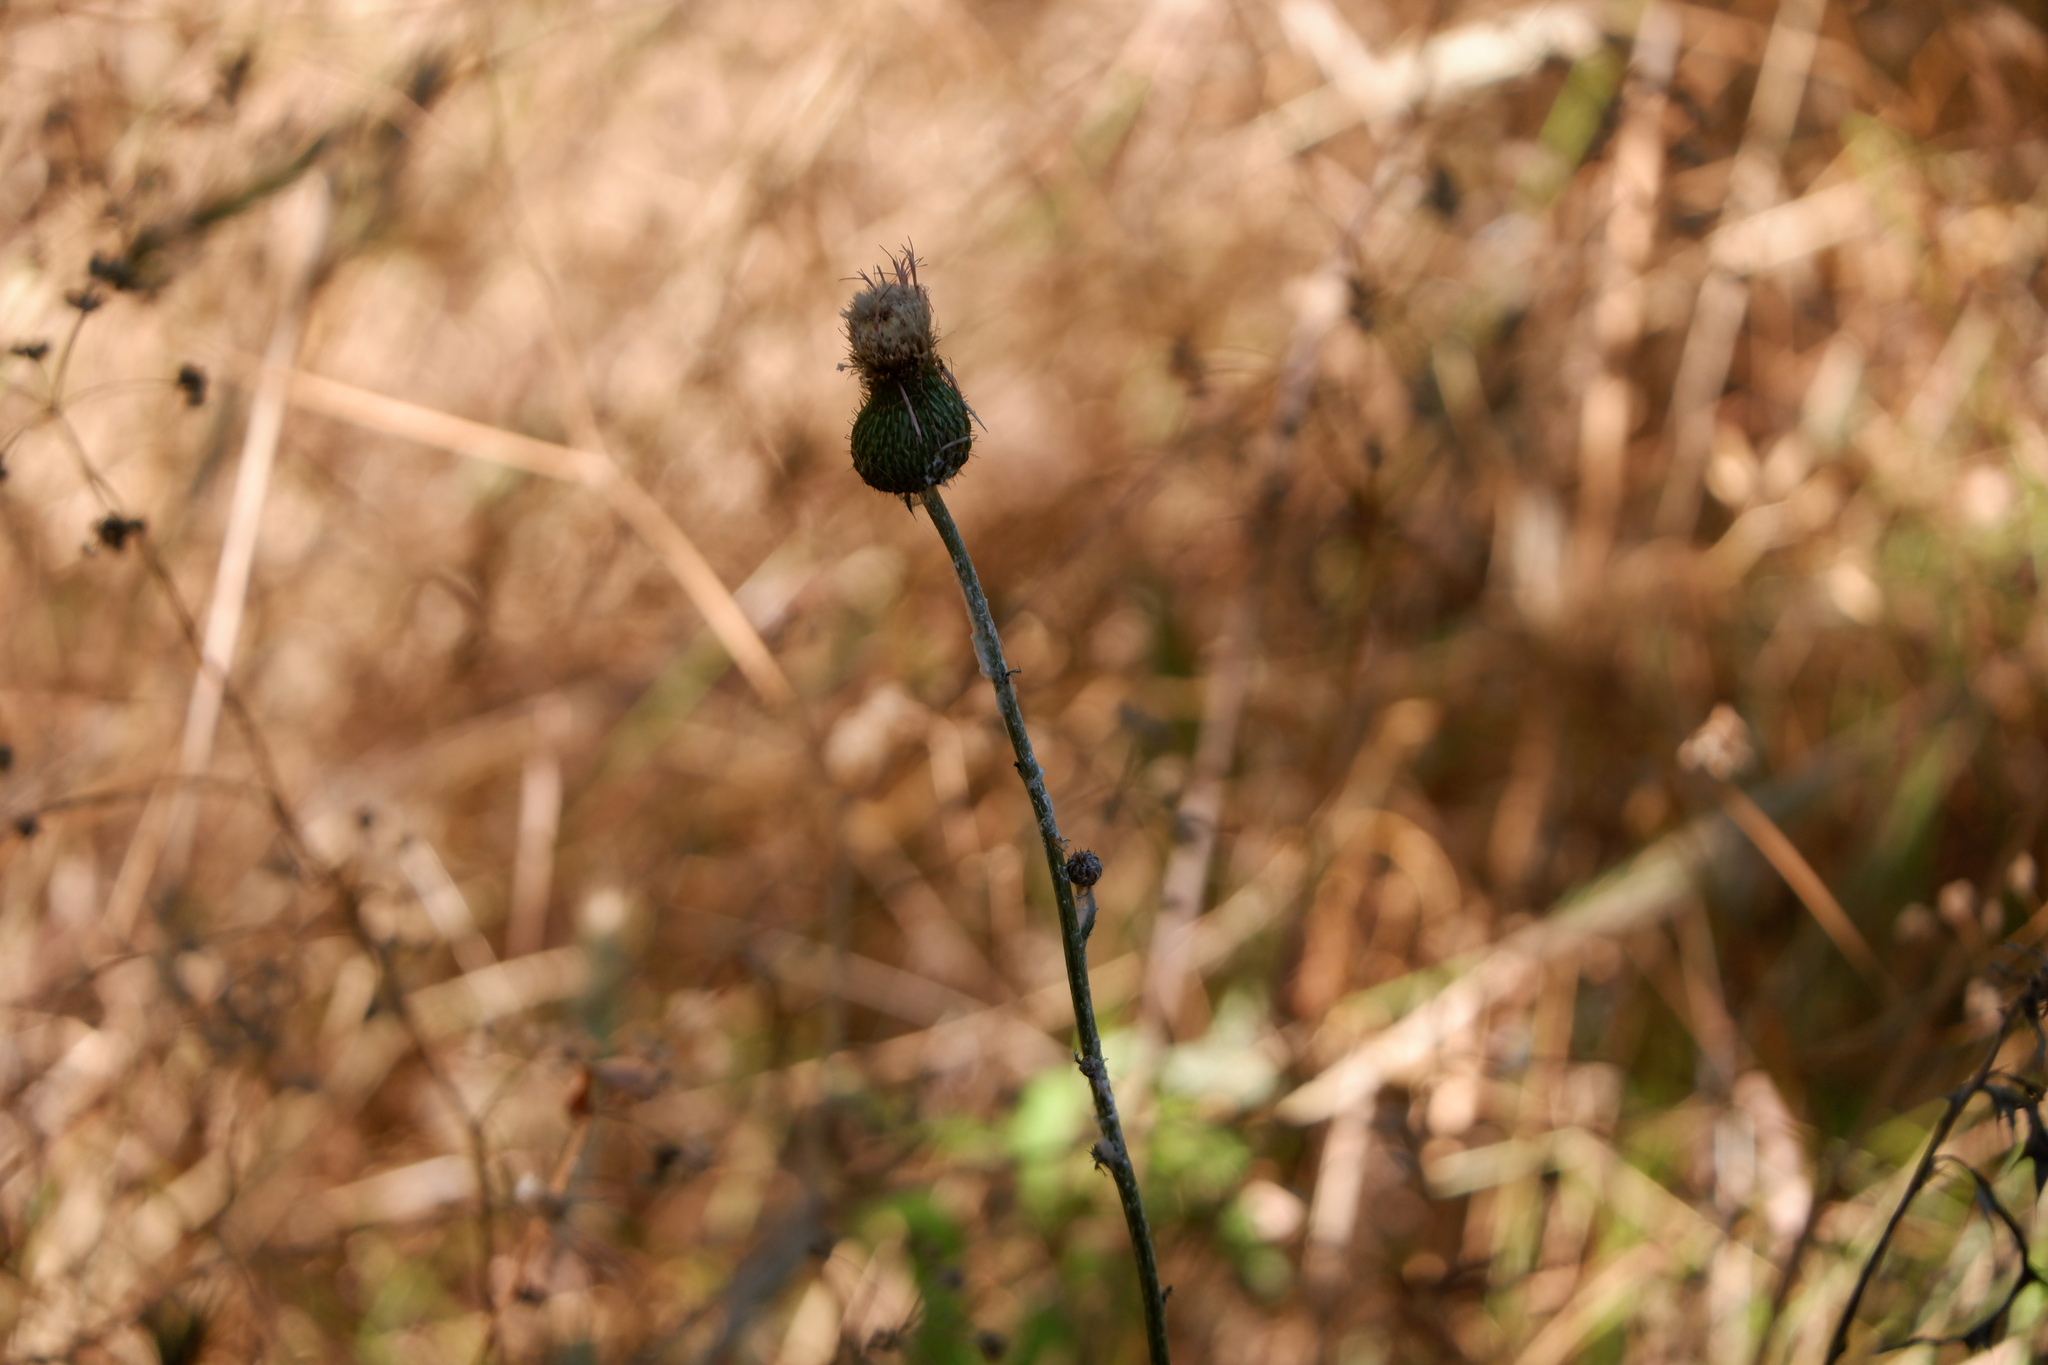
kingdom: Plantae
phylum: Tracheophyta
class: Magnoliopsida
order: Asterales
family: Asteraceae
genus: Cirsium
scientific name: Cirsium texanum
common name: Texas purple thistle
